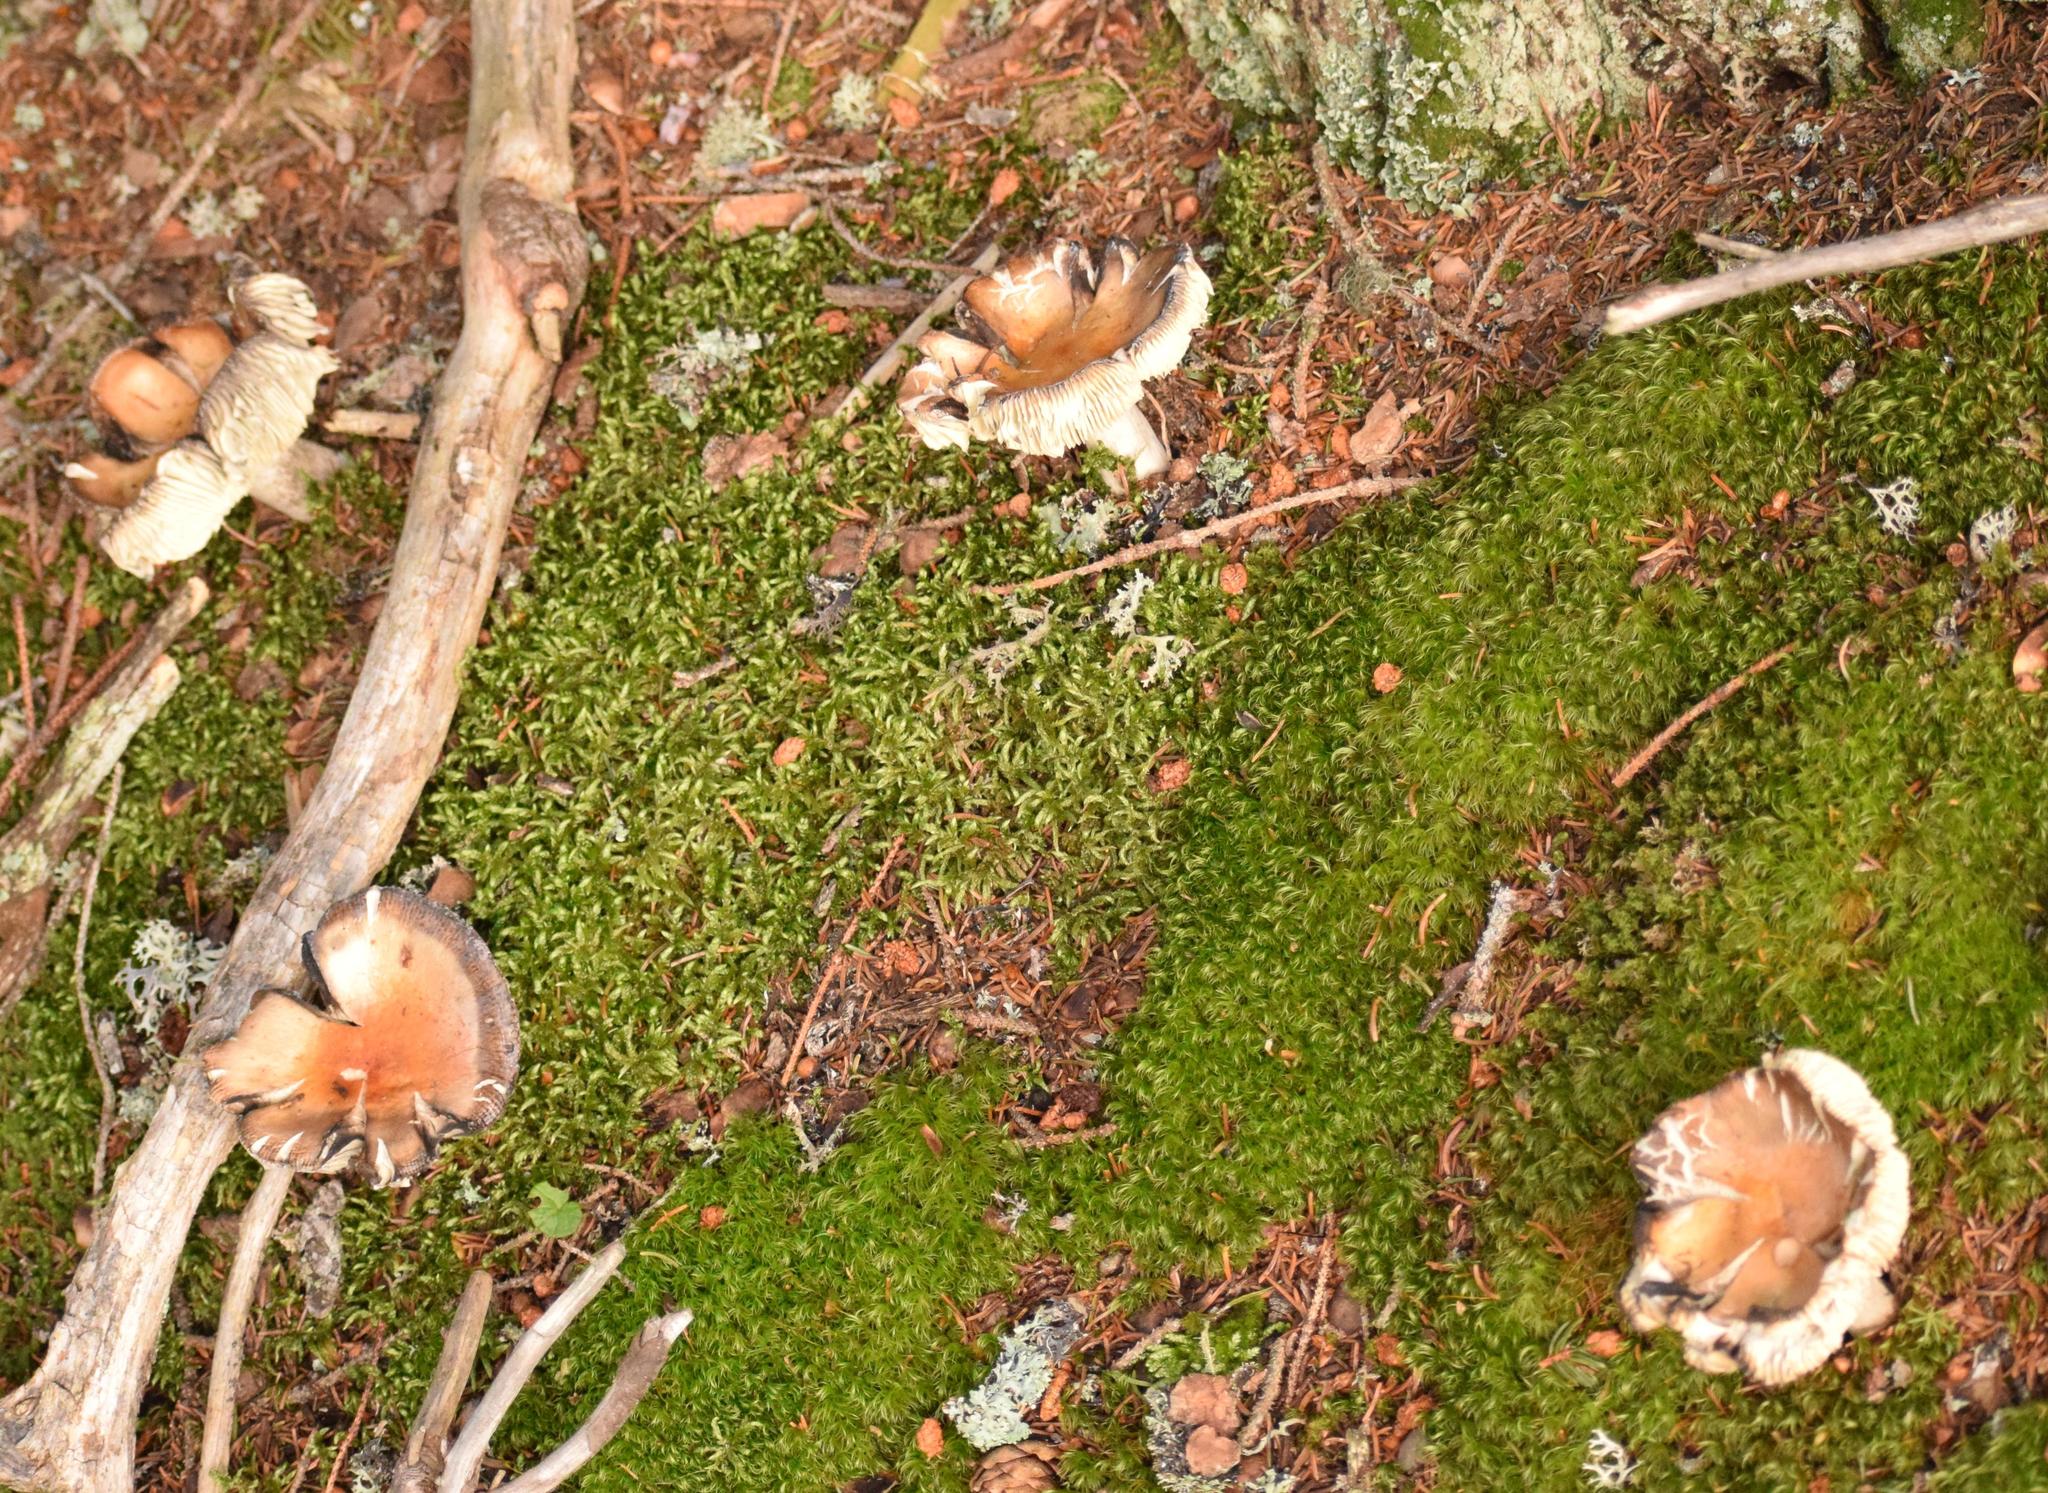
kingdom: Fungi
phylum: Basidiomycota
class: Agaricomycetes
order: Russulales
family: Russulaceae
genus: Russula
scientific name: Russula decolorans
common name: Copper brittlegill
